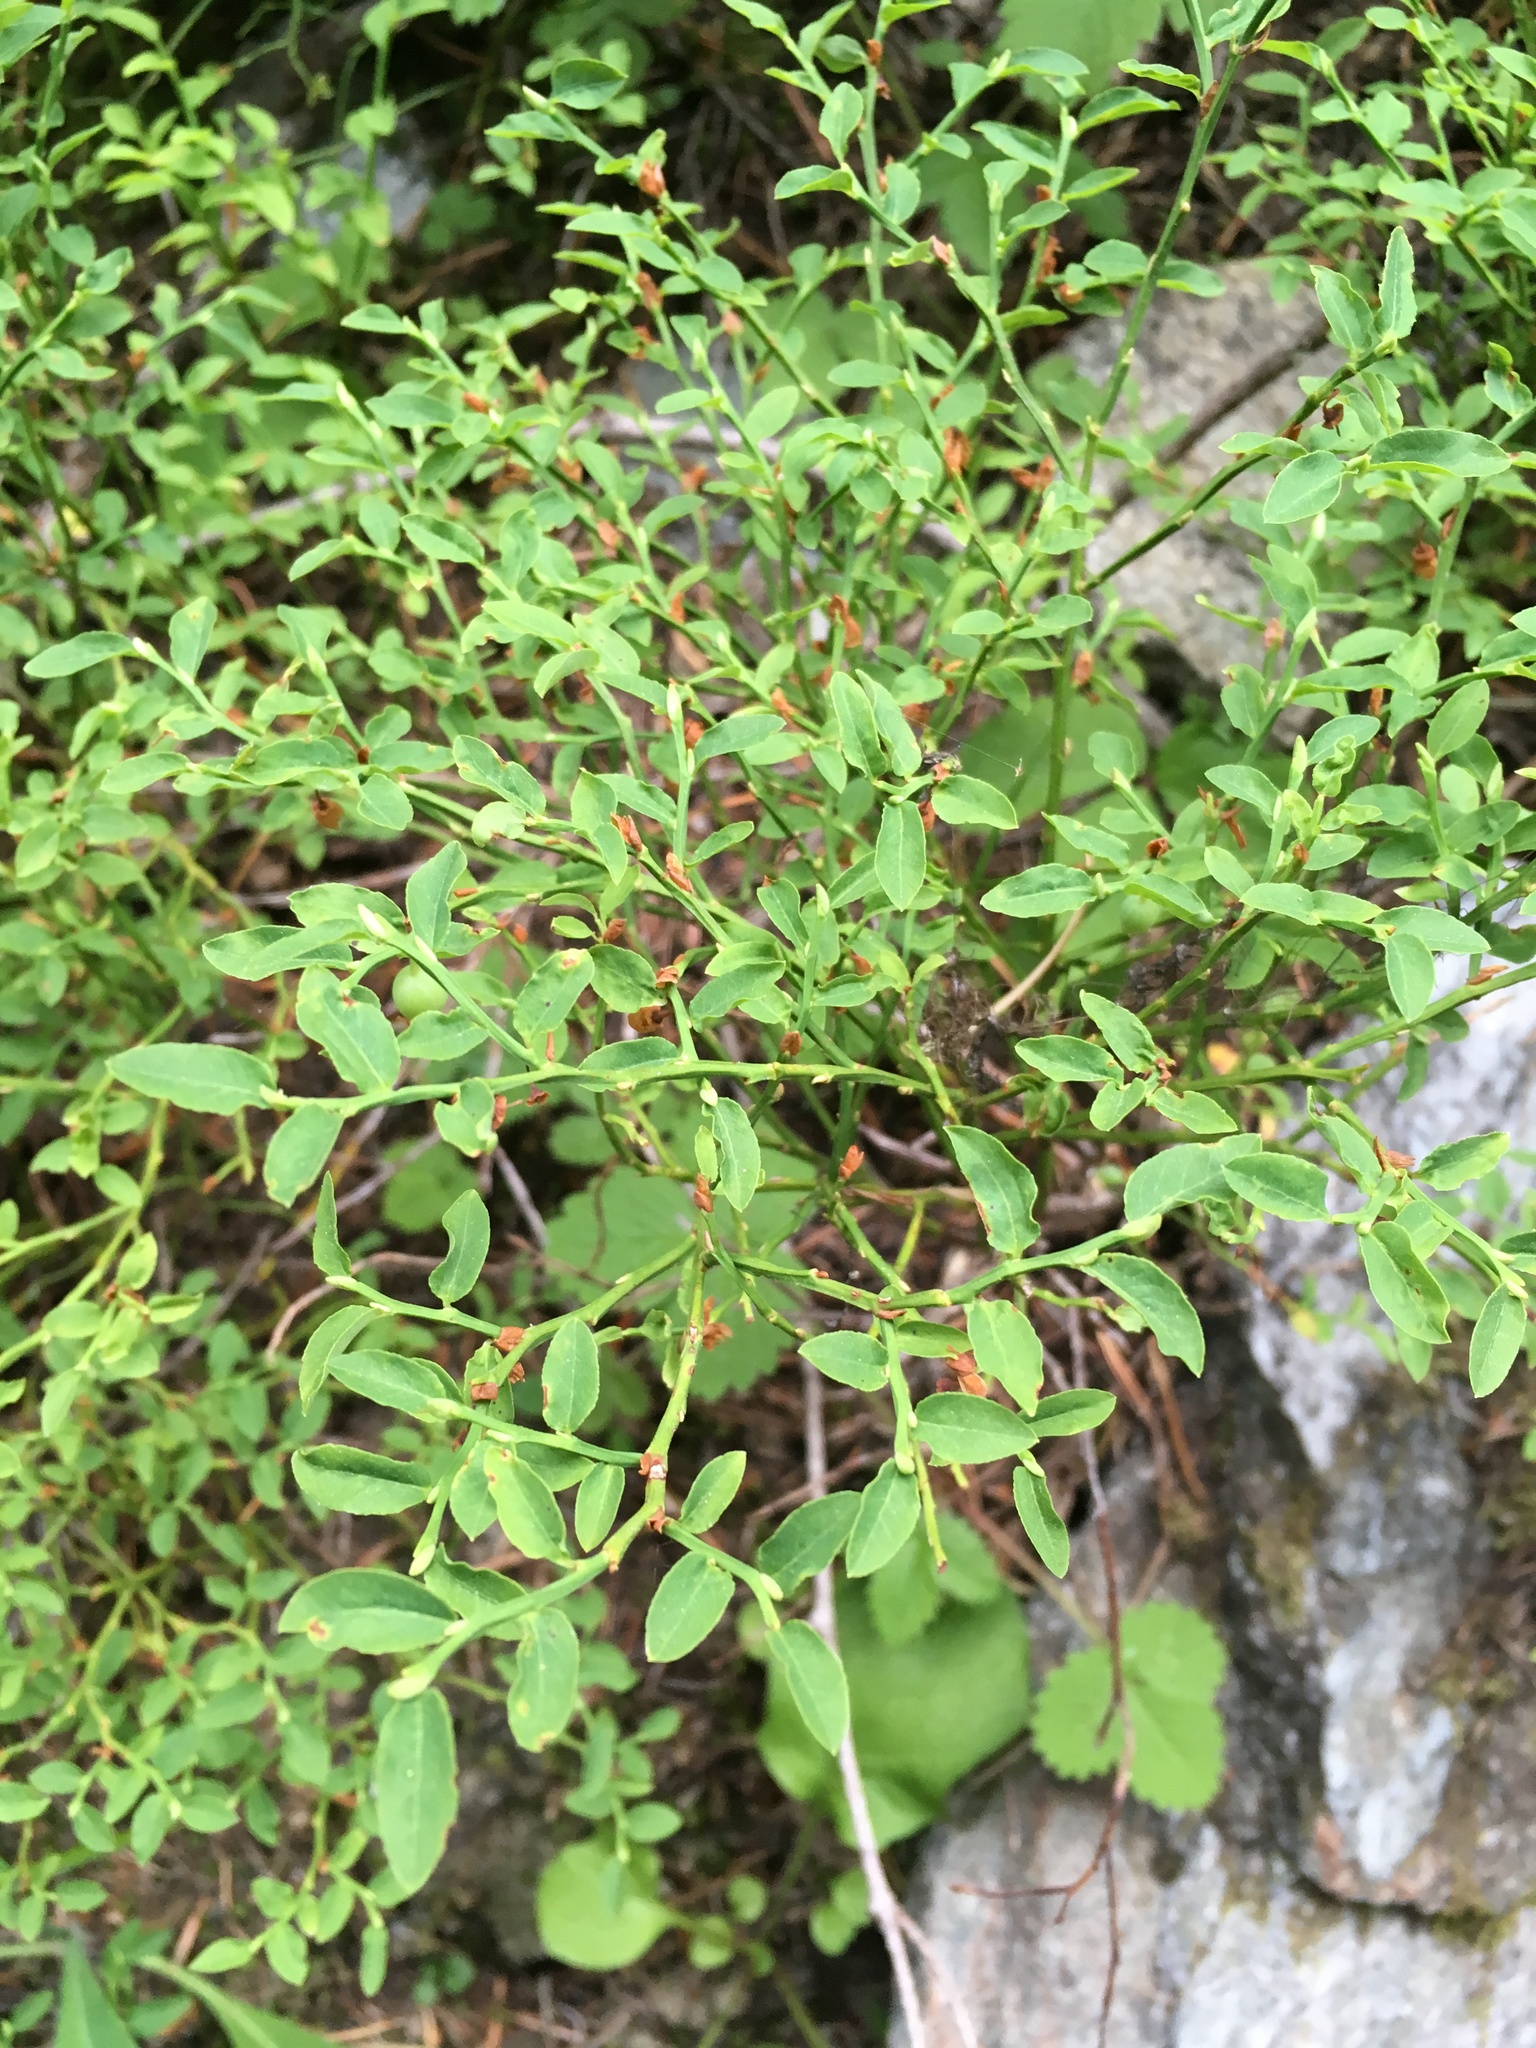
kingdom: Plantae
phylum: Tracheophyta
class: Magnoliopsida
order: Ericales
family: Ericaceae
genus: Vaccinium
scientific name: Vaccinium scoparium
